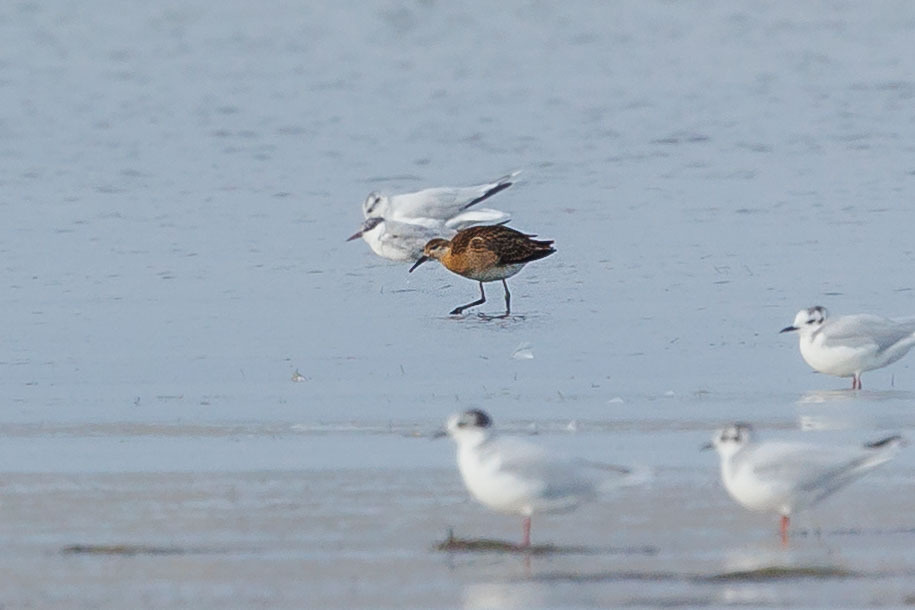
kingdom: Animalia
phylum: Chordata
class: Aves
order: Charadriiformes
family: Scolopacidae
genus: Calidris
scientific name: Calidris pugnax
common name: Ruff
